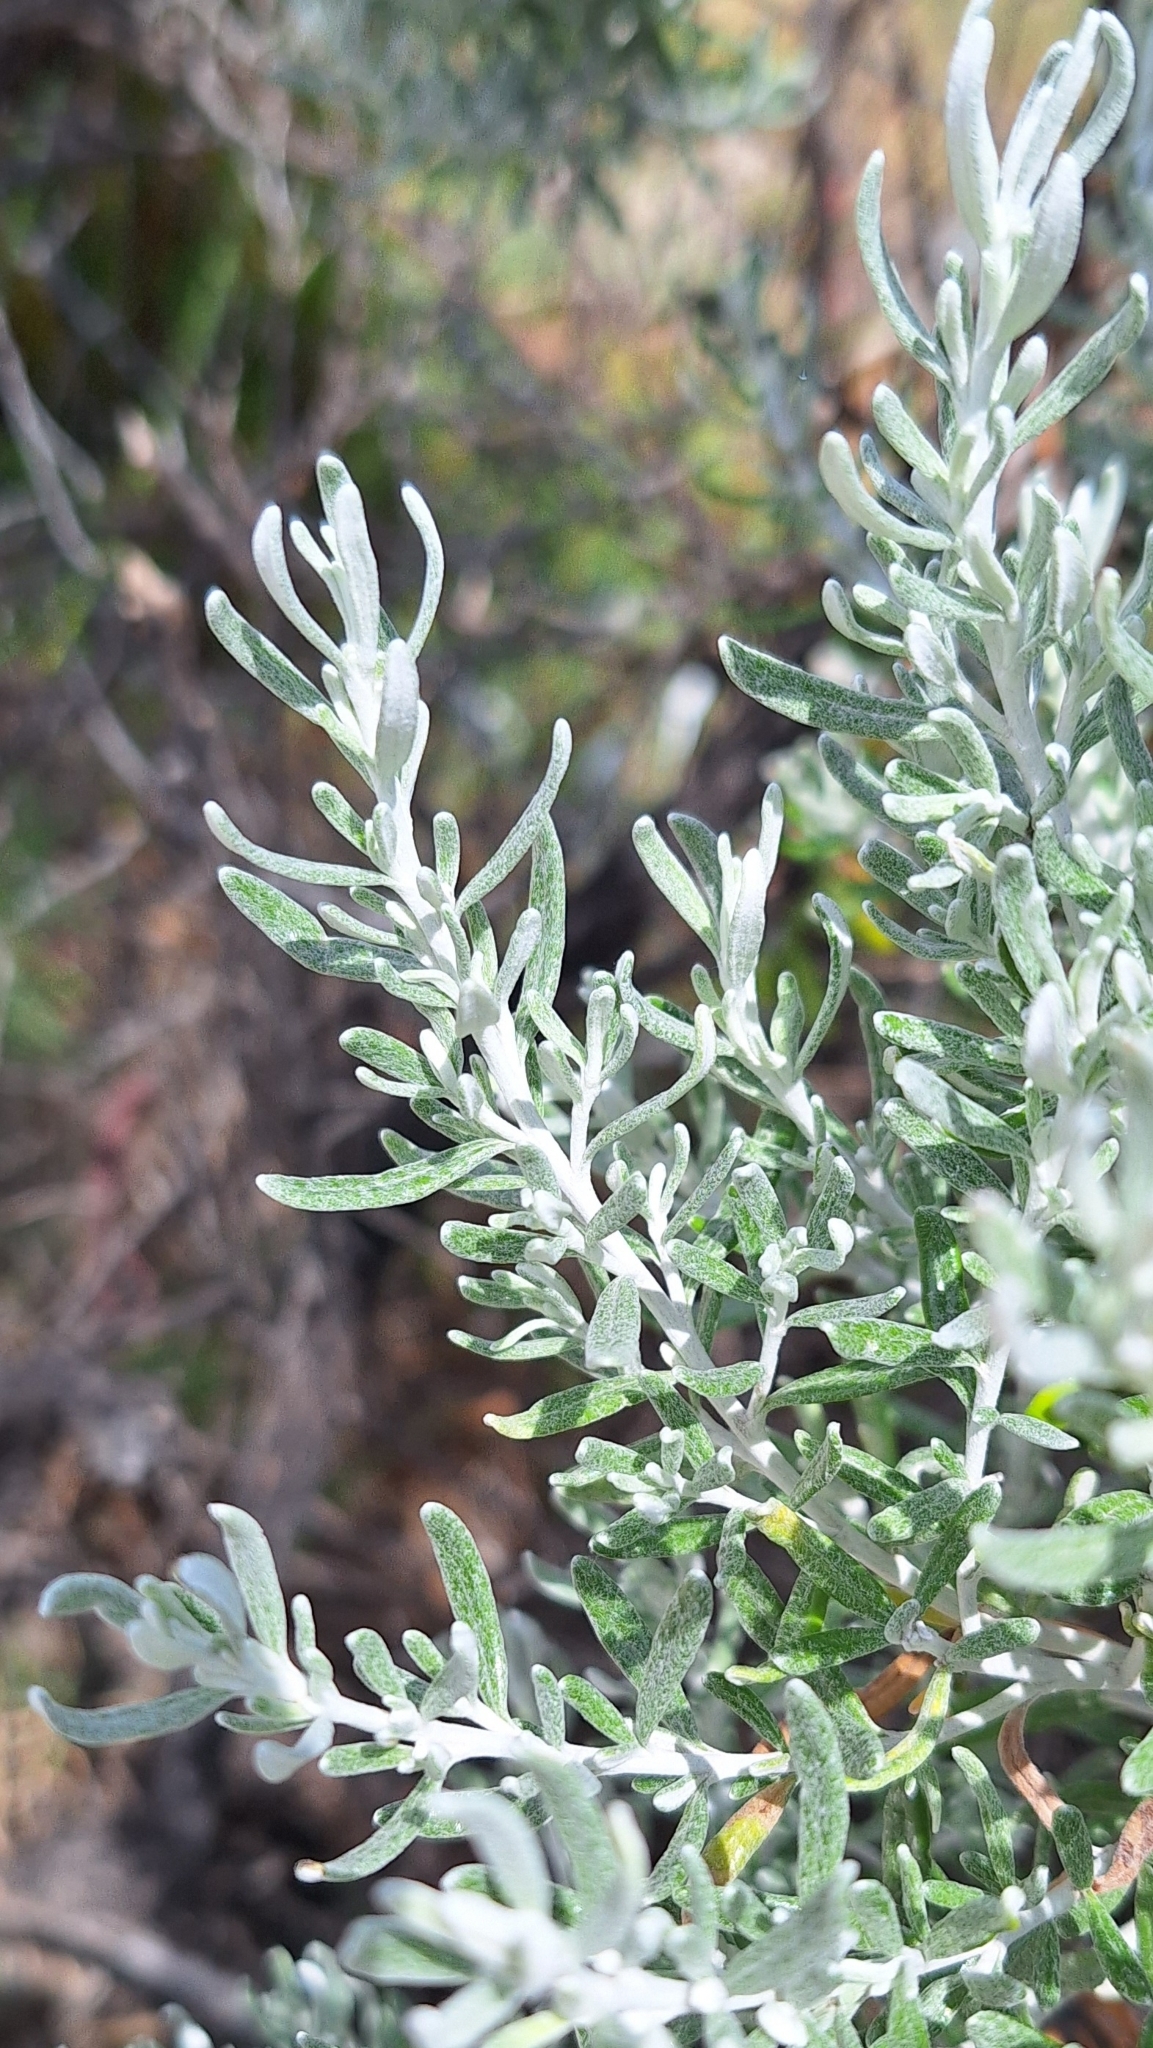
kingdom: Plantae
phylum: Tracheophyta
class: Magnoliopsida
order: Asterales
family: Asteraceae
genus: Olearia
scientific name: Olearia axillaris
